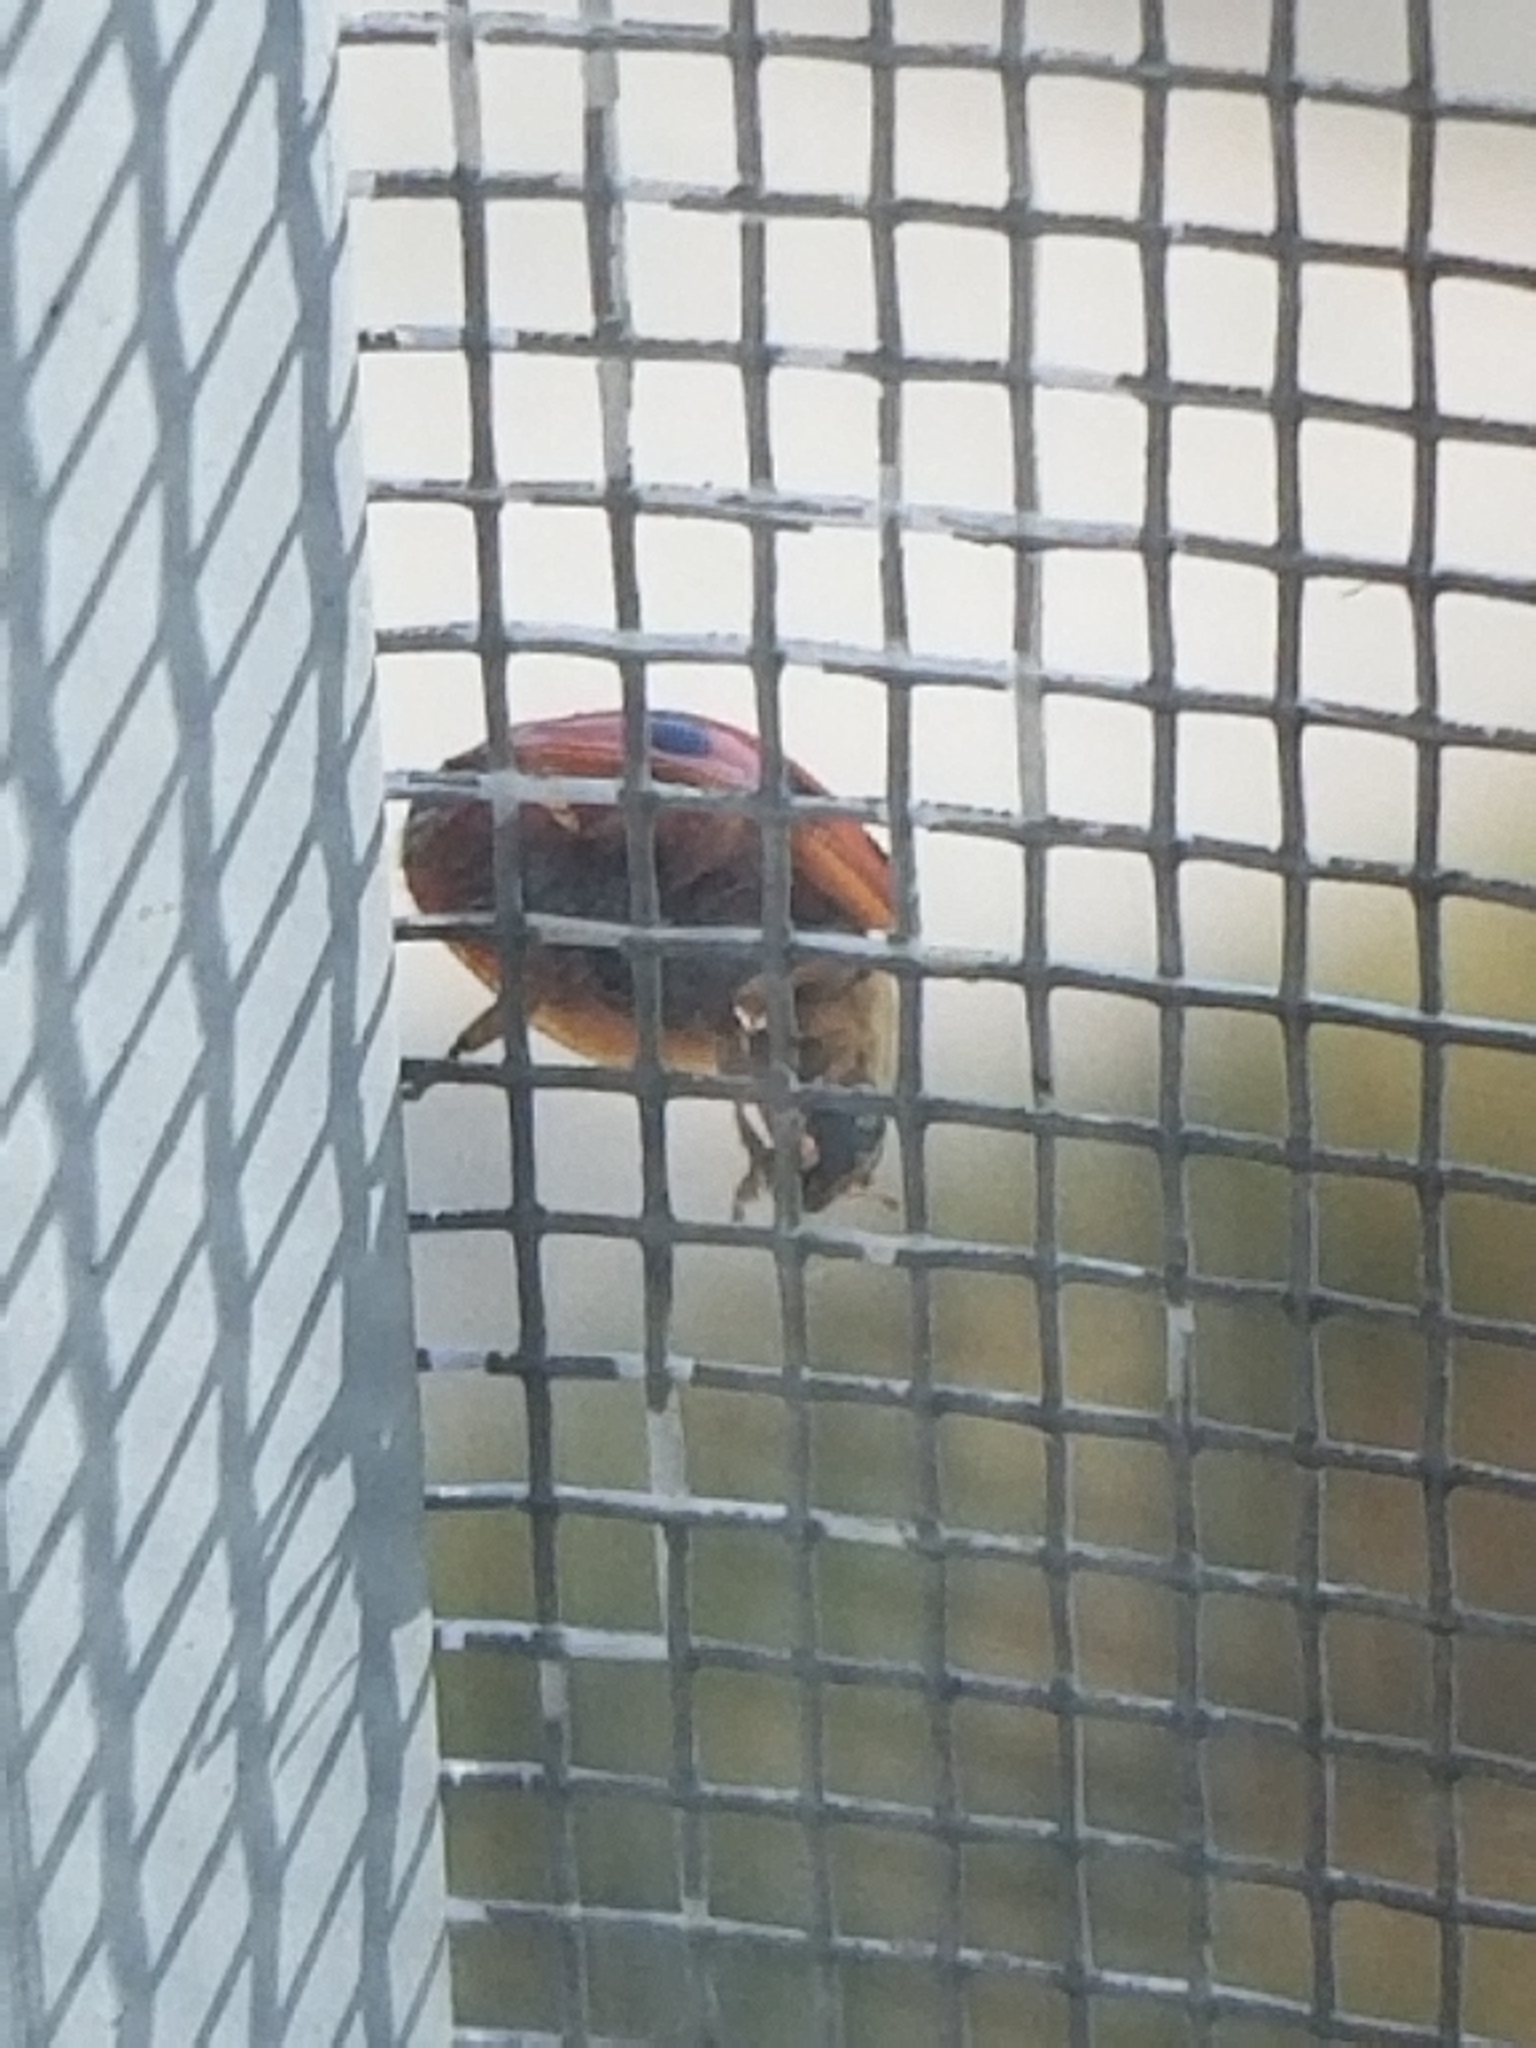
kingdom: Animalia
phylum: Arthropoda
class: Insecta
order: Coleoptera
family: Coccinellidae
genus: Harmonia
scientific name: Harmonia axyridis
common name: Harlequin ladybird
